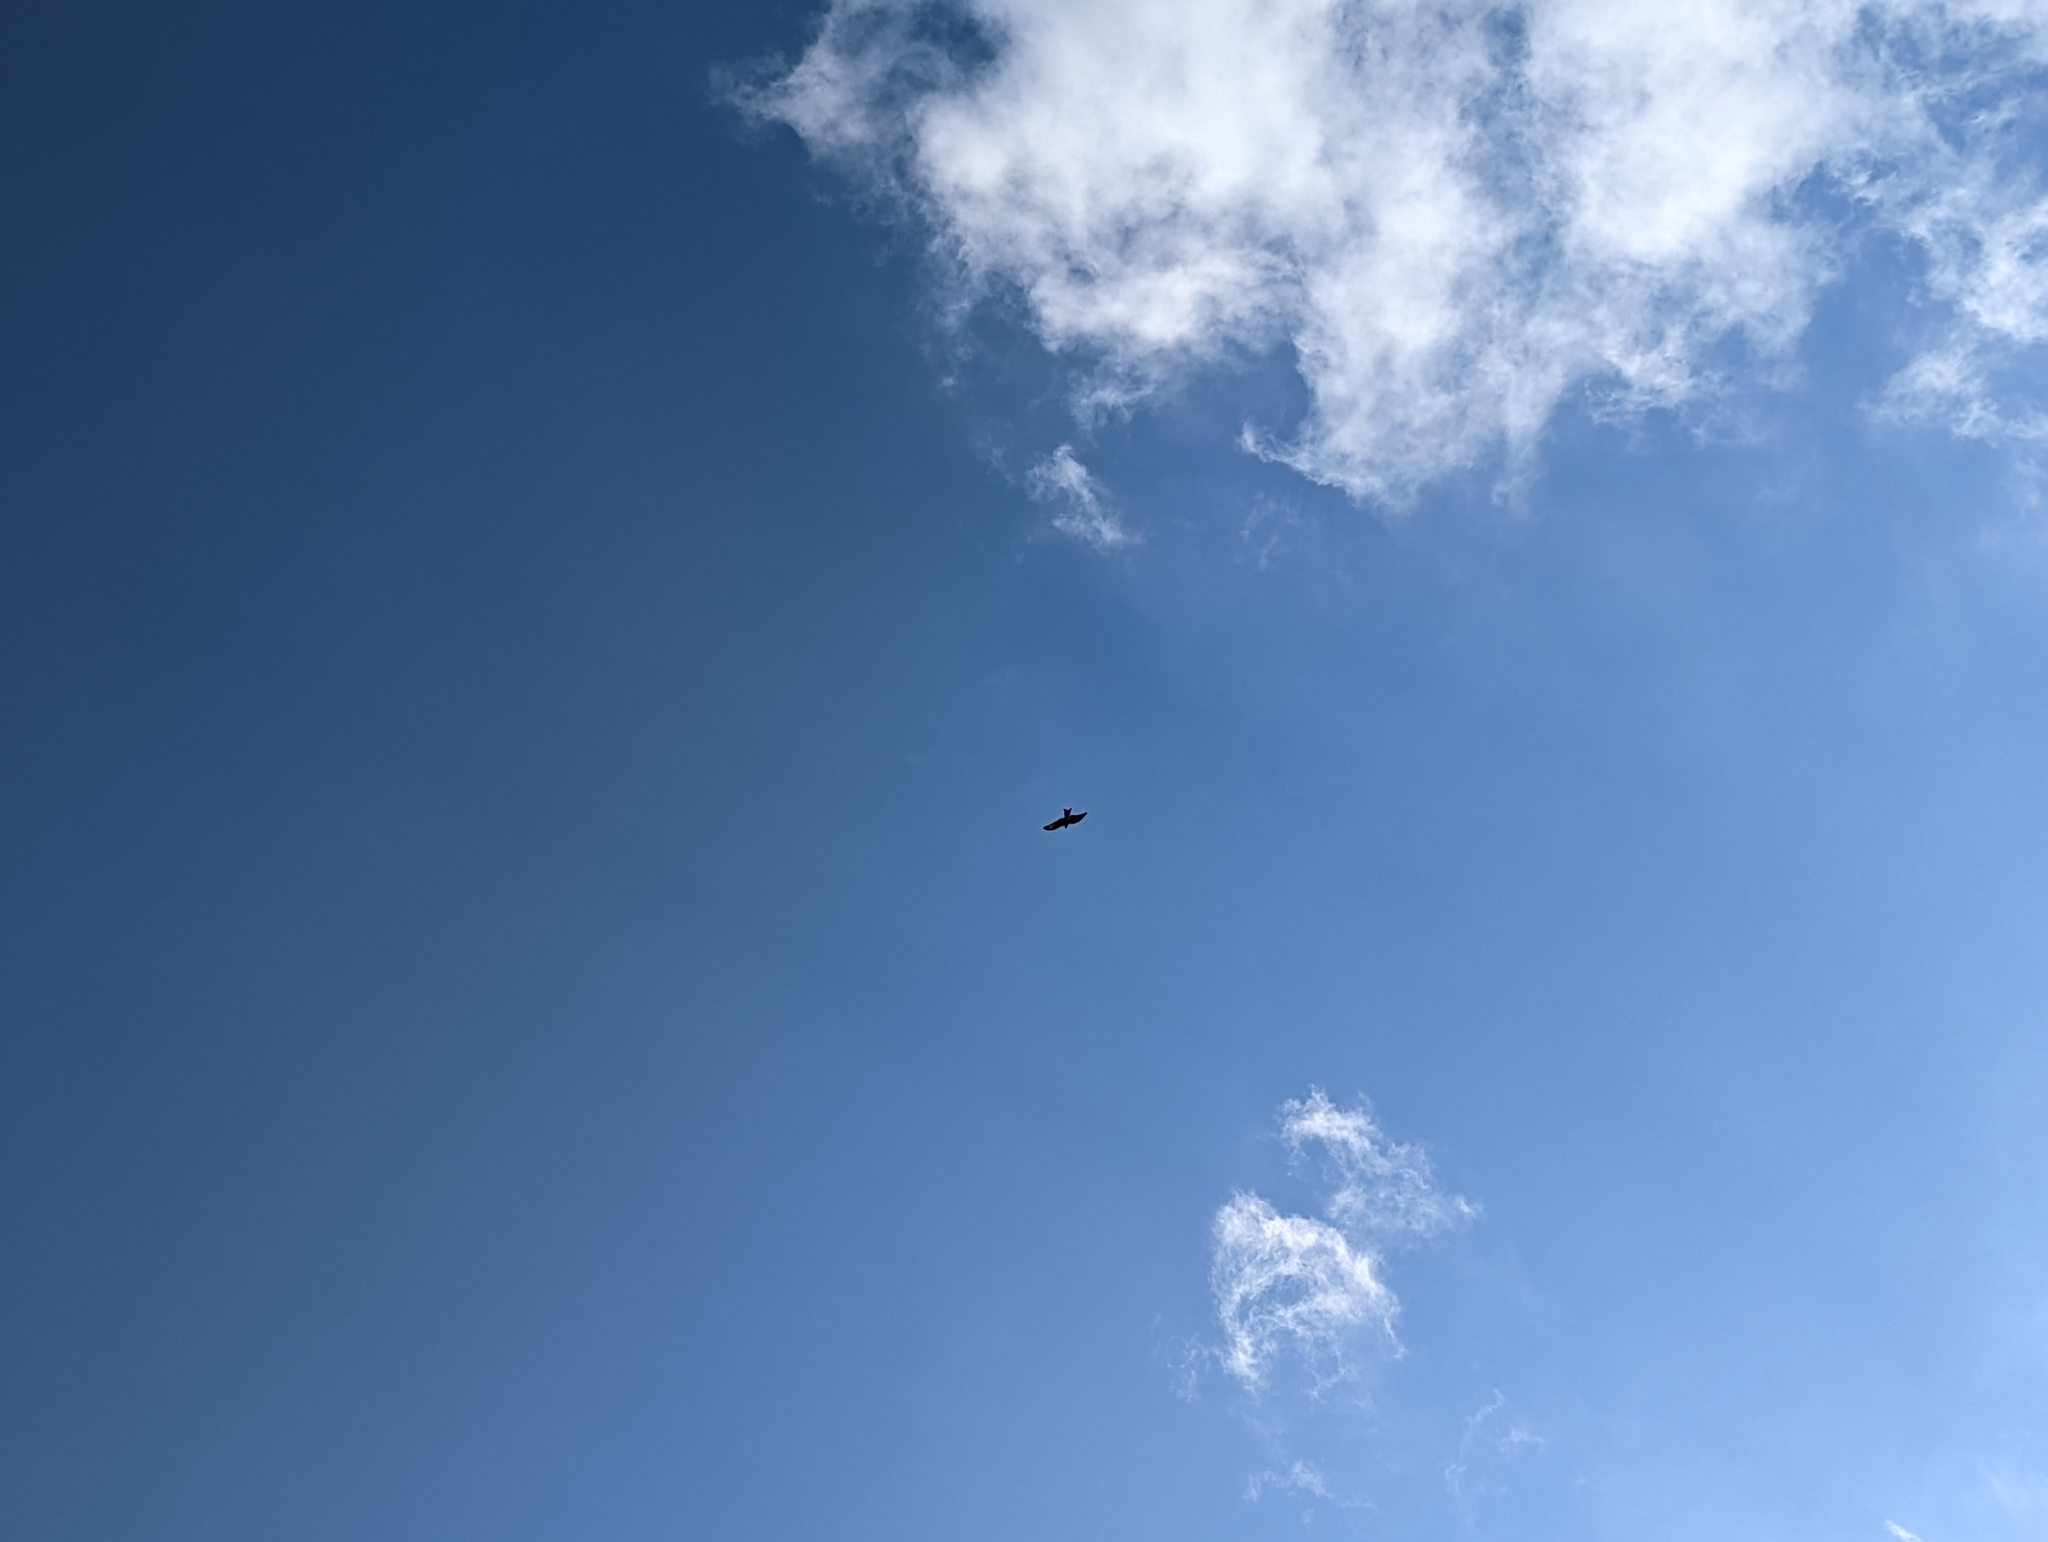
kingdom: Animalia
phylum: Chordata
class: Aves
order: Accipitriformes
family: Accipitridae
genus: Milvus
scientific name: Milvus milvus
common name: Red kite
